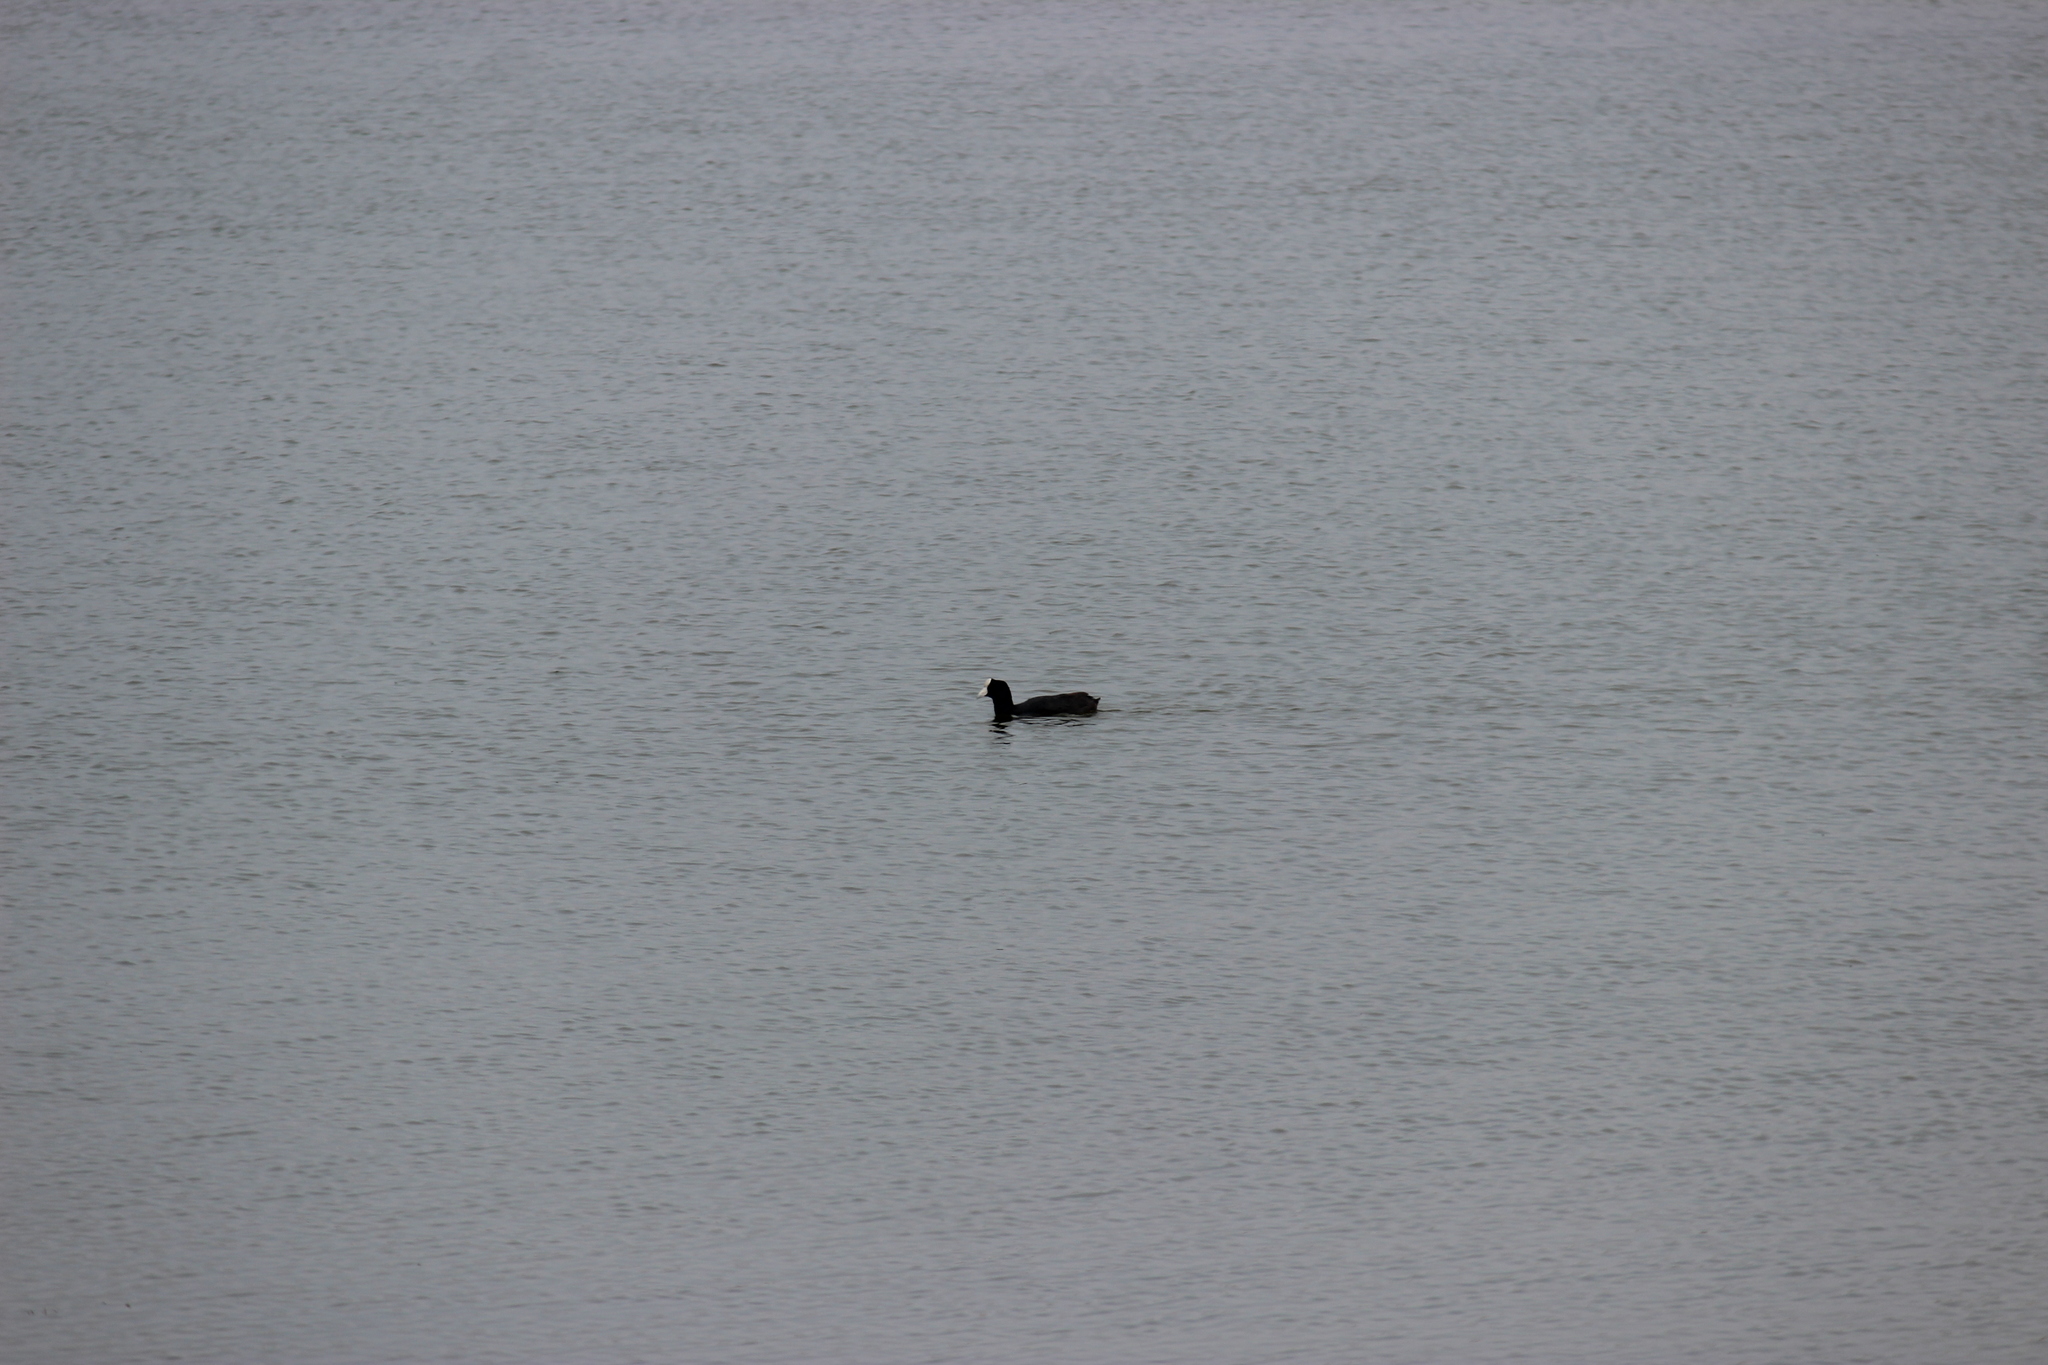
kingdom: Animalia
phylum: Chordata
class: Aves
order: Gruiformes
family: Rallidae
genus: Fulica
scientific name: Fulica ardesiaca
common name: Andean coot
